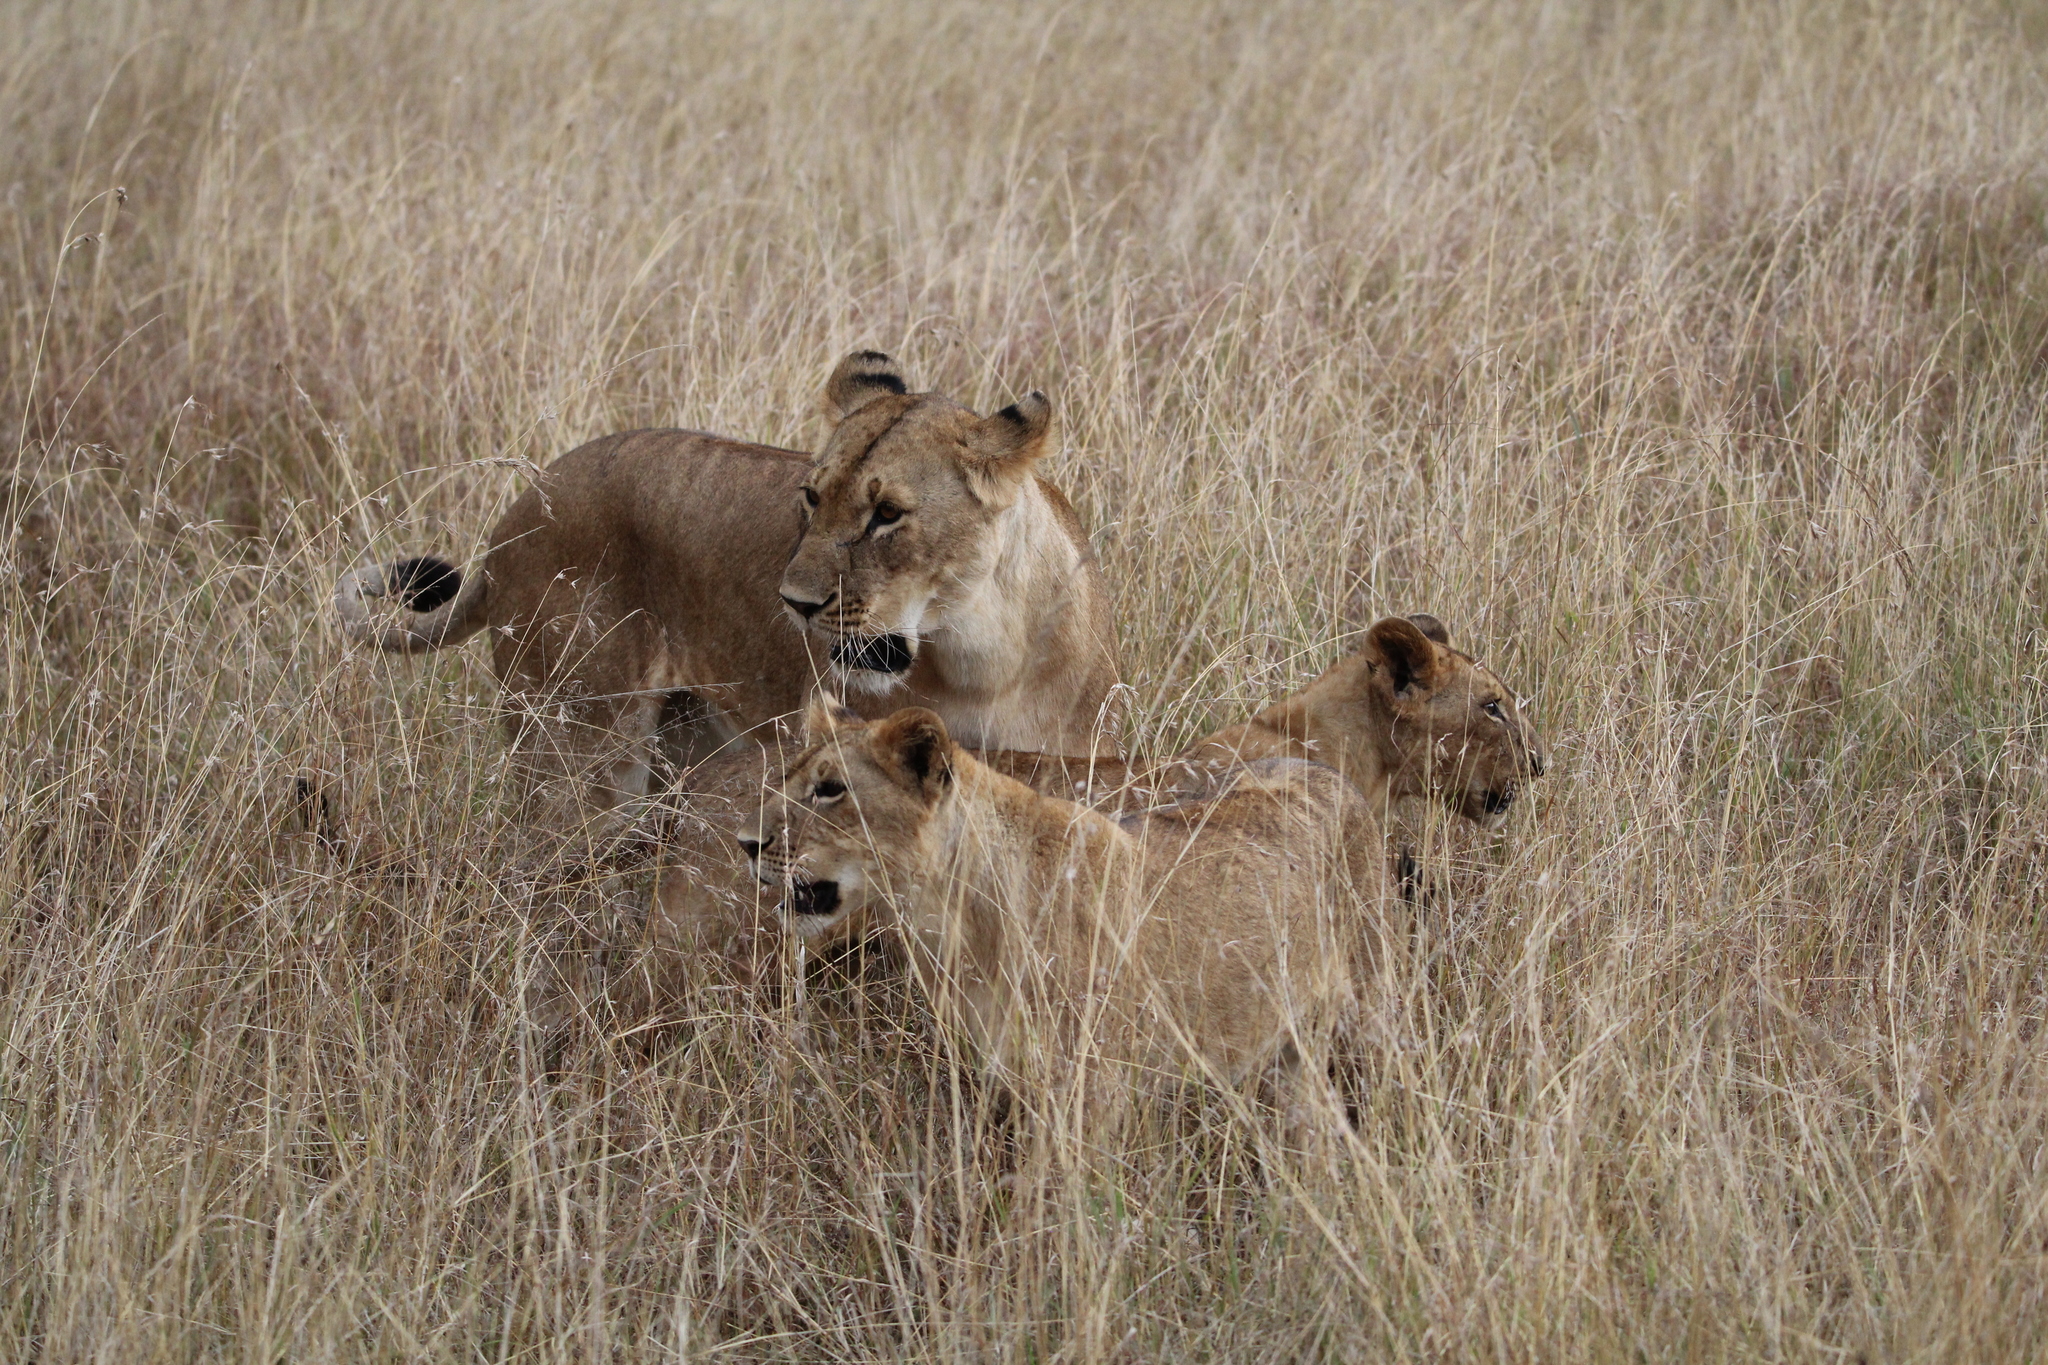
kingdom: Animalia
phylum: Chordata
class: Mammalia
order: Carnivora
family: Felidae
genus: Panthera
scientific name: Panthera leo
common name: Lion
